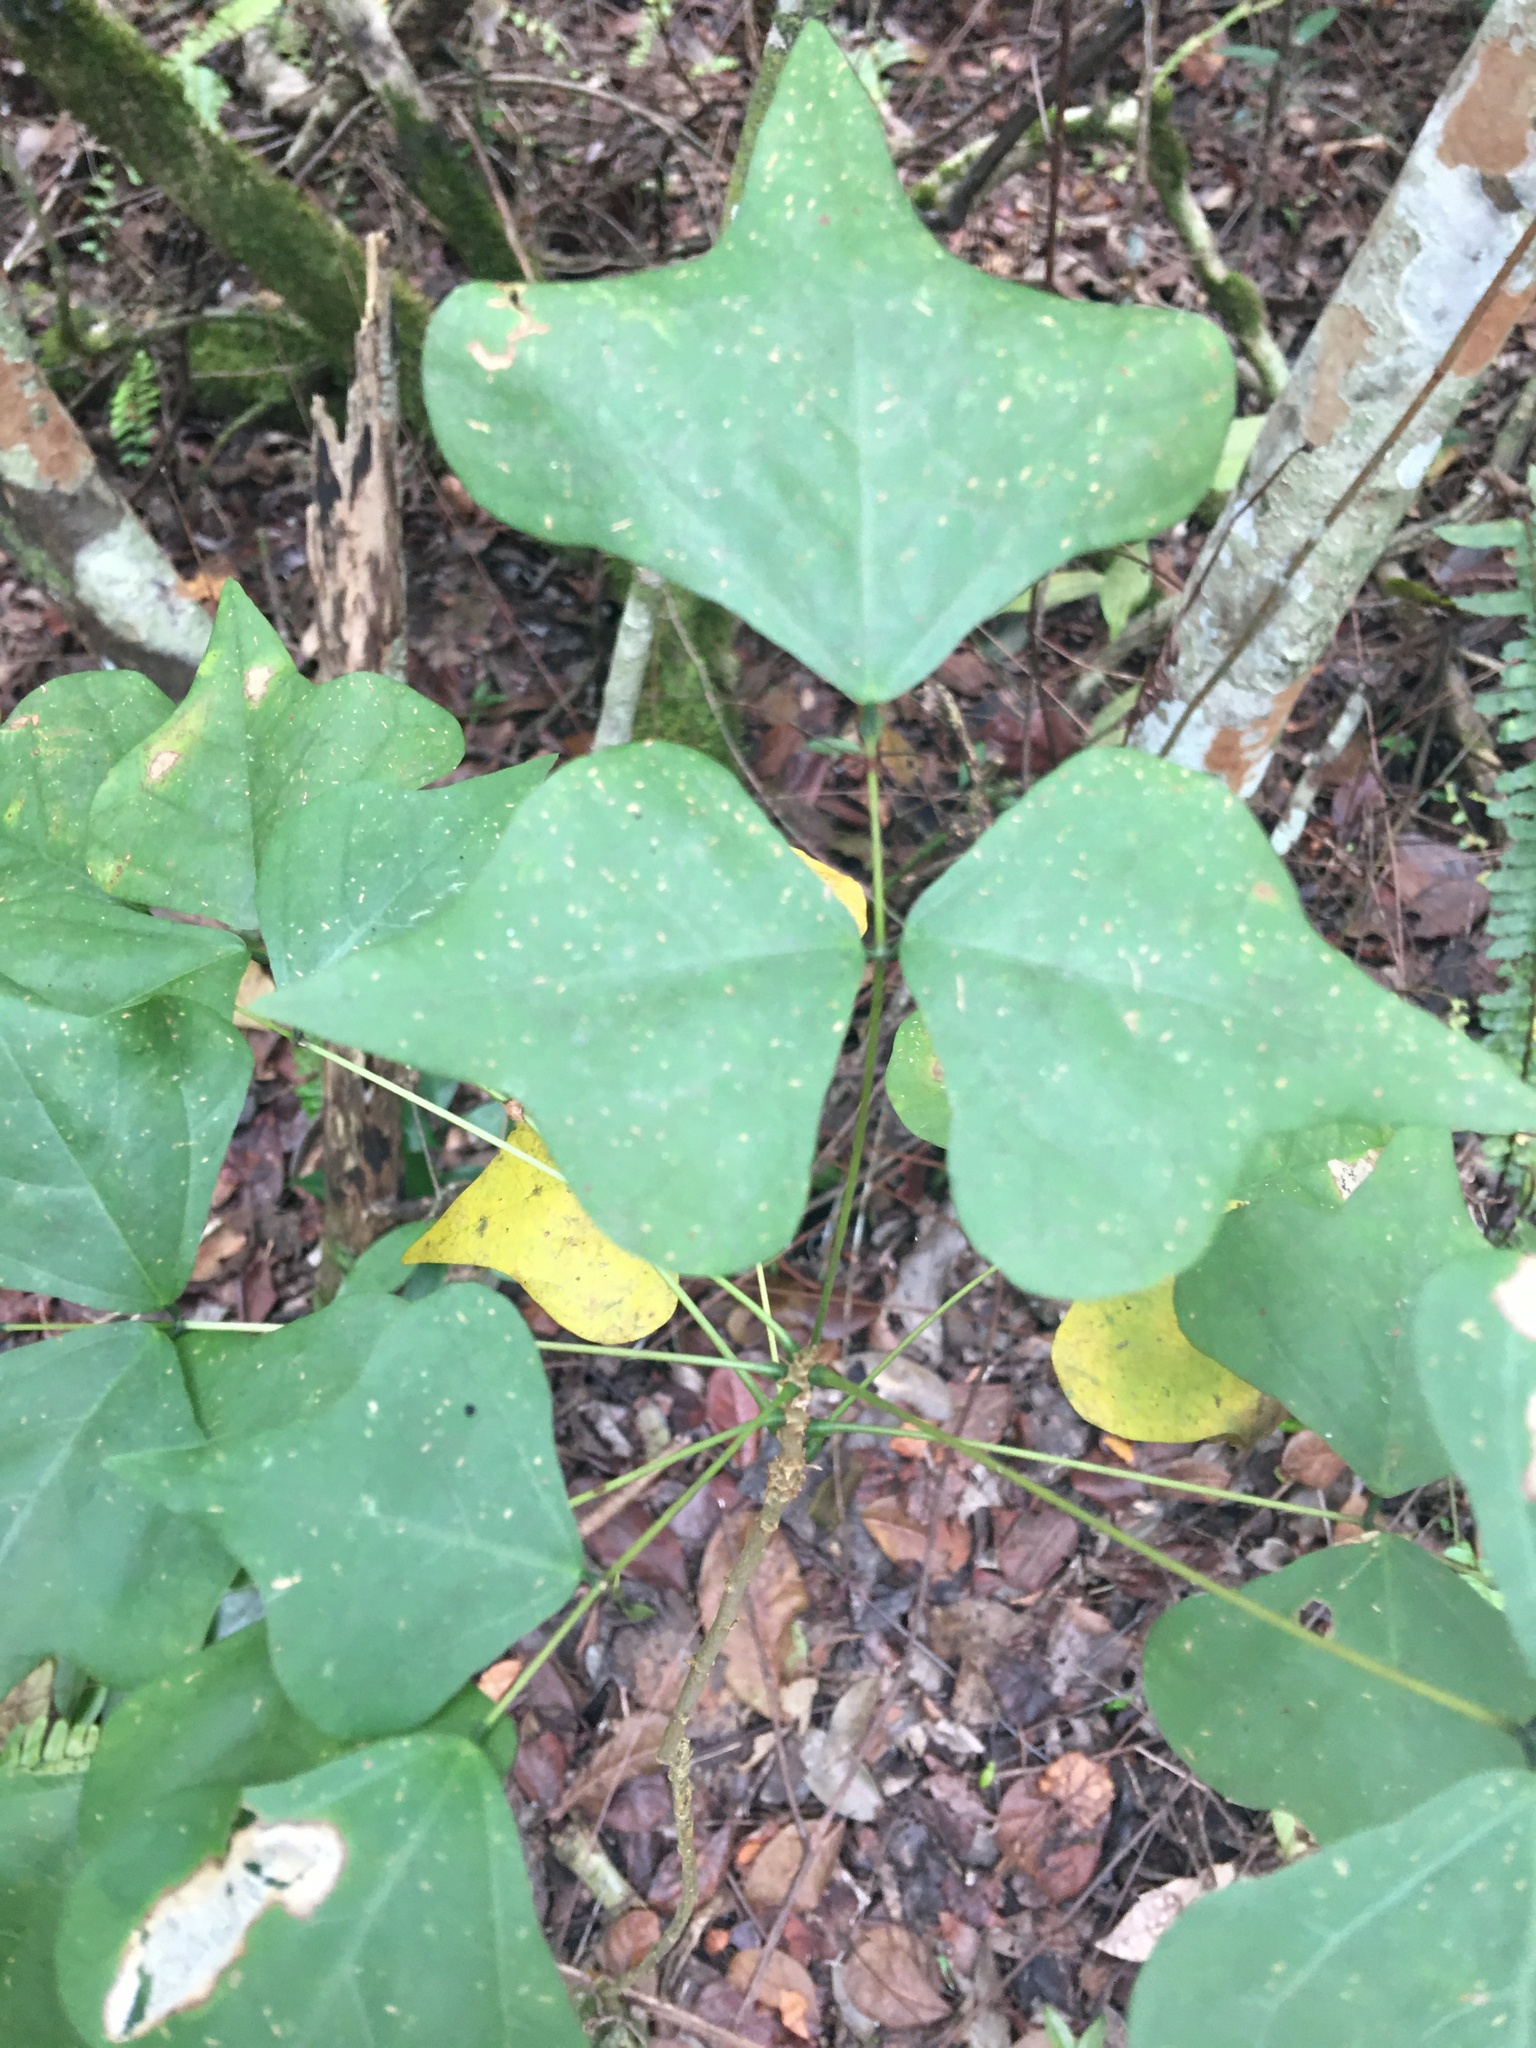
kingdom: Plantae
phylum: Tracheophyta
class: Magnoliopsida
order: Fabales
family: Fabaceae
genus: Erythrina
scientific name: Erythrina herbacea
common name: Coral-bean
